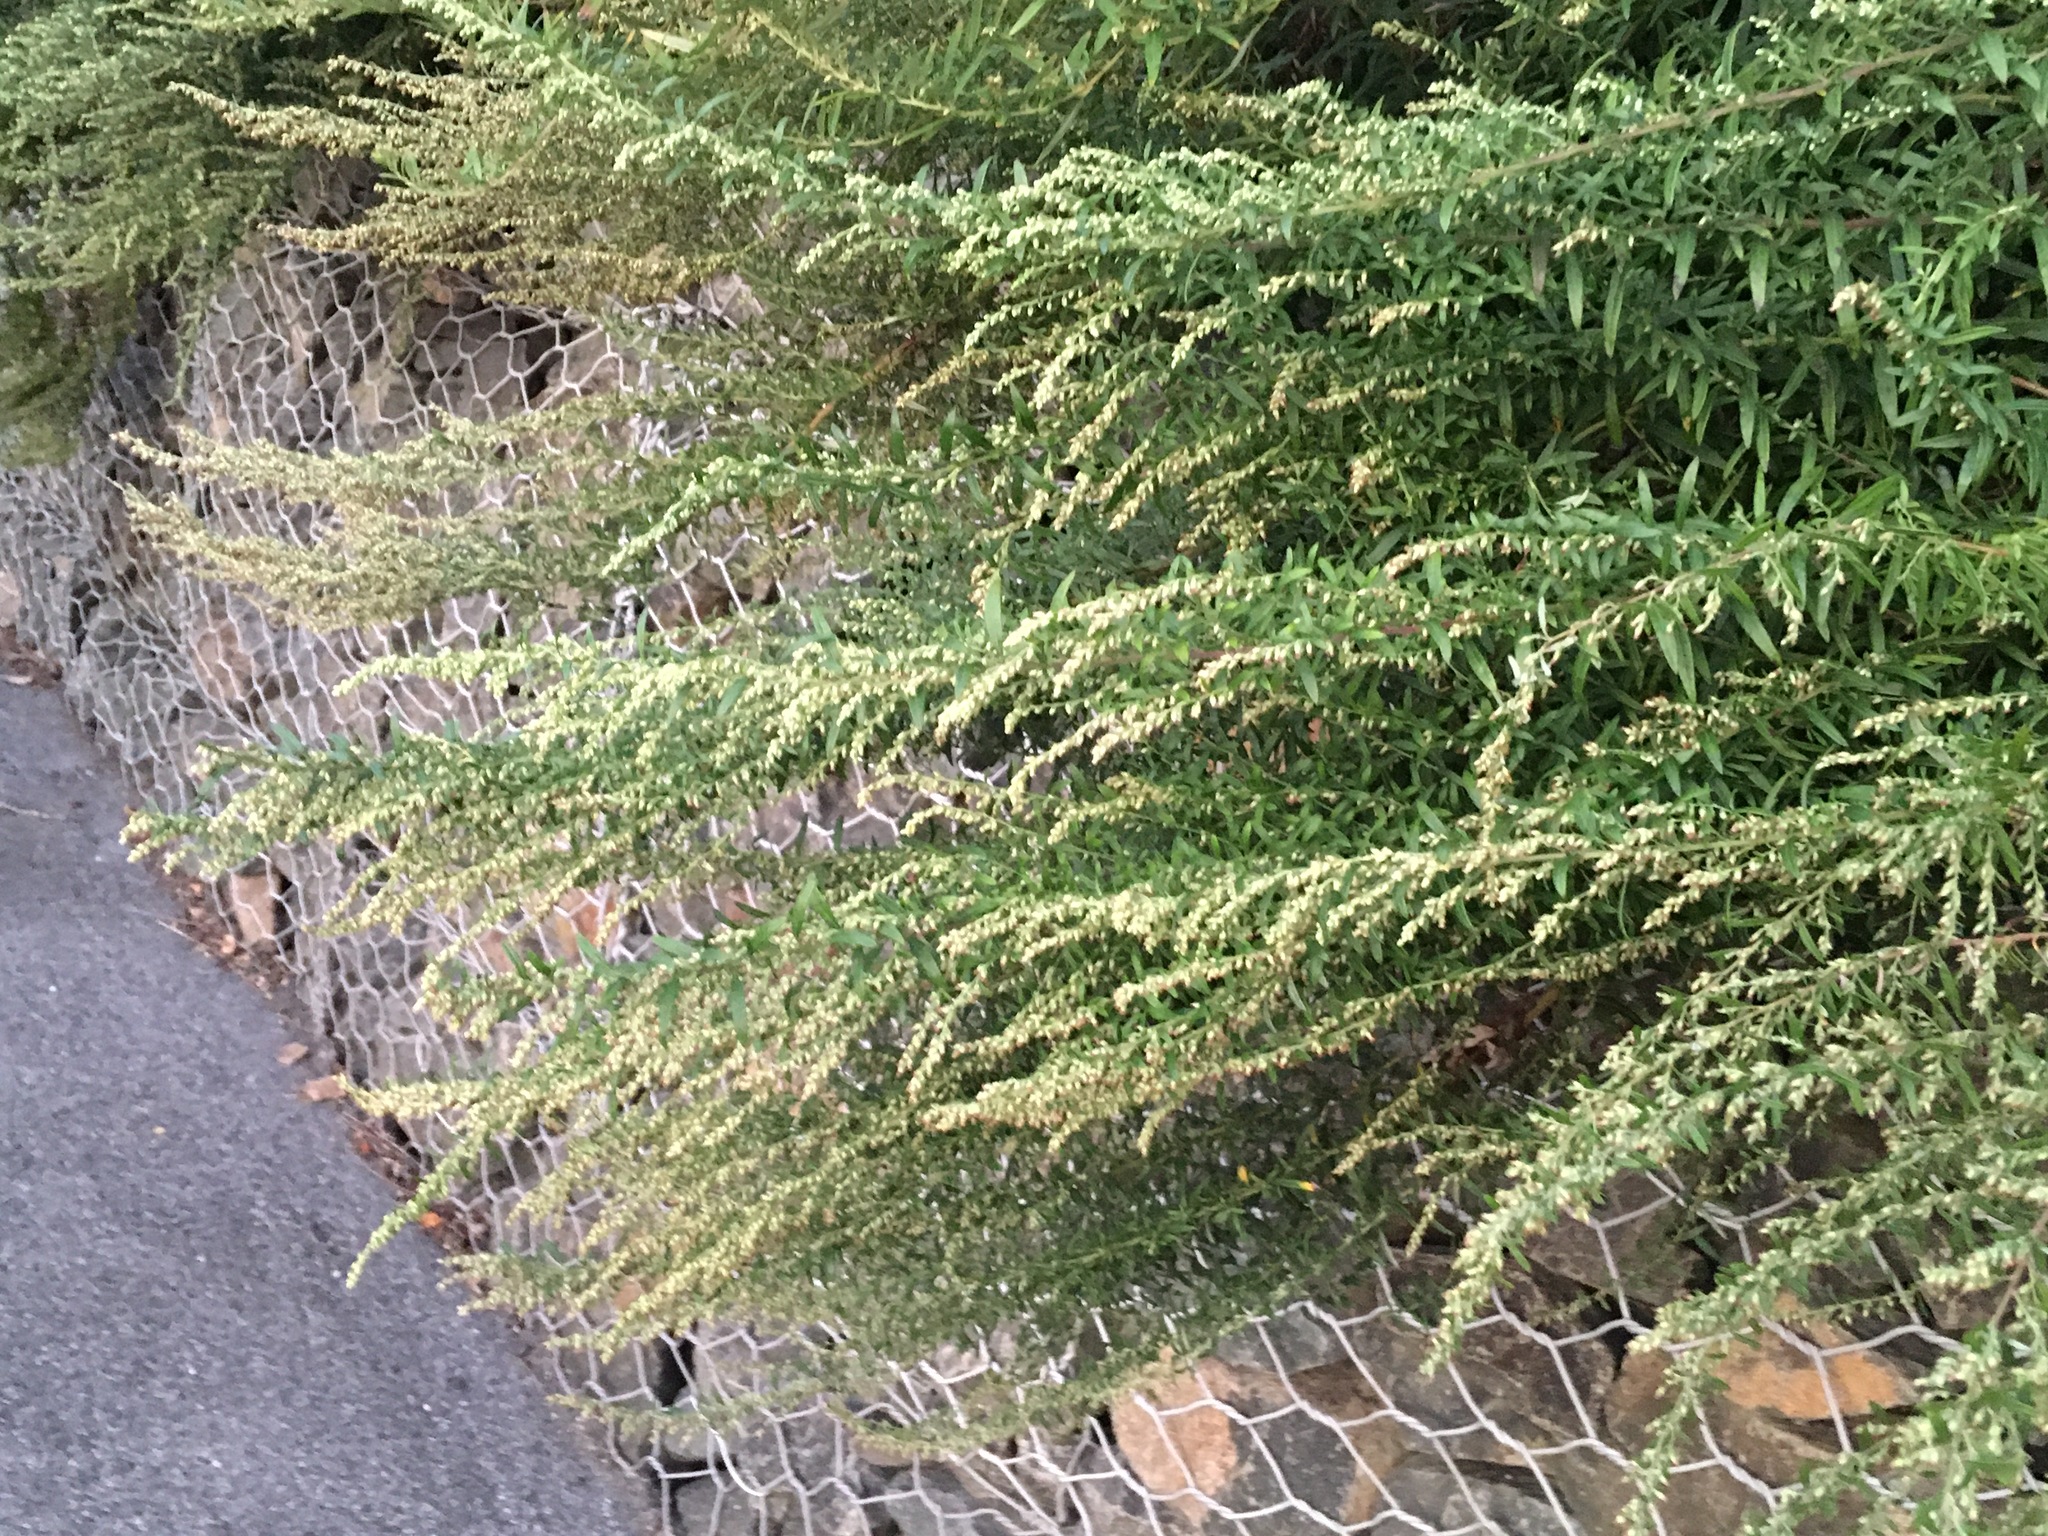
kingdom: Plantae
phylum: Tracheophyta
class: Magnoliopsida
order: Asterales
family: Asteraceae
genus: Artemisia
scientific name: Artemisia vulgaris
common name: Mugwort
